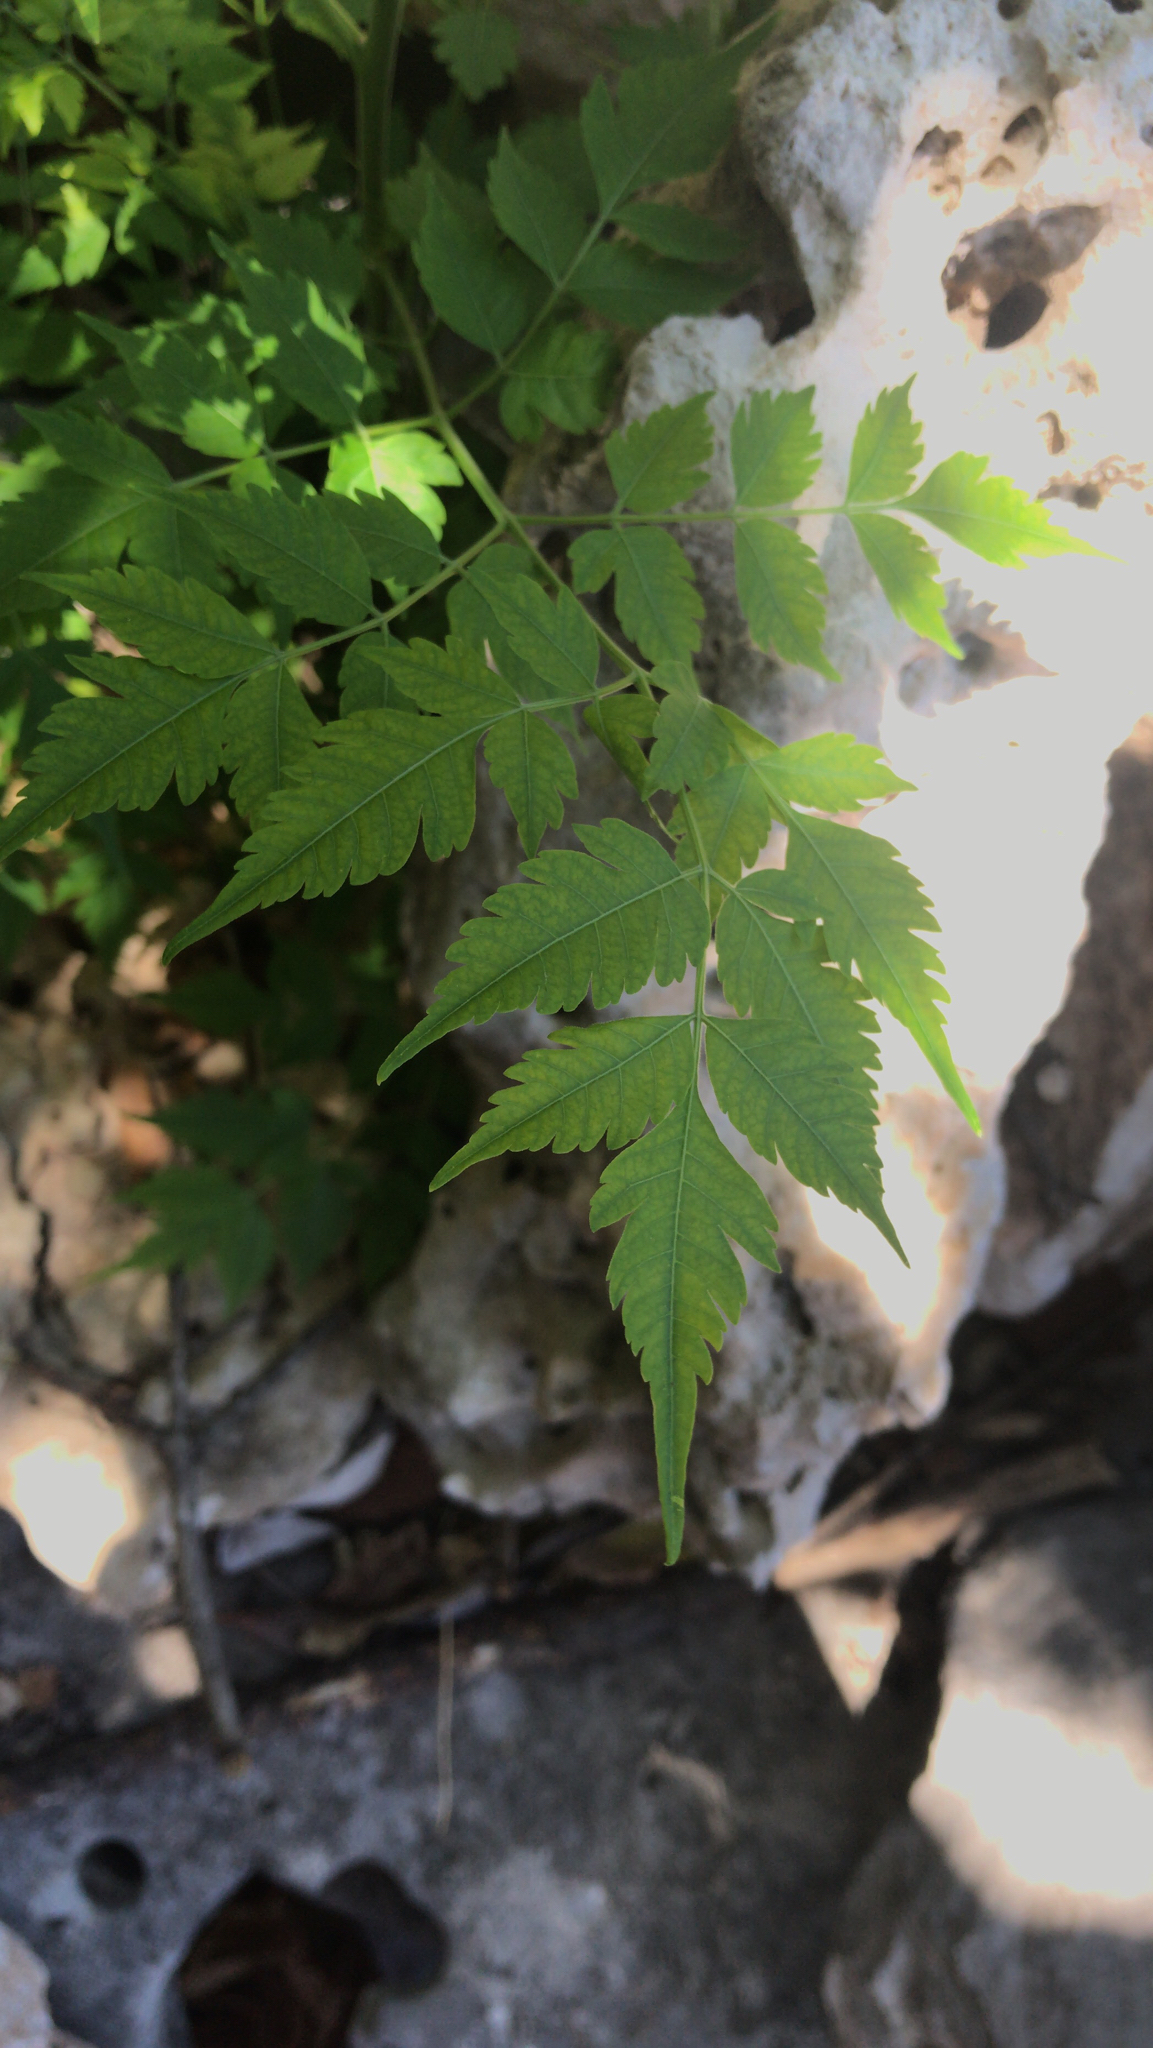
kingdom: Plantae
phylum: Tracheophyta
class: Magnoliopsida
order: Sapindales
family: Meliaceae
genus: Melia
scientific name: Melia azedarach
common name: Chinaberrytree
